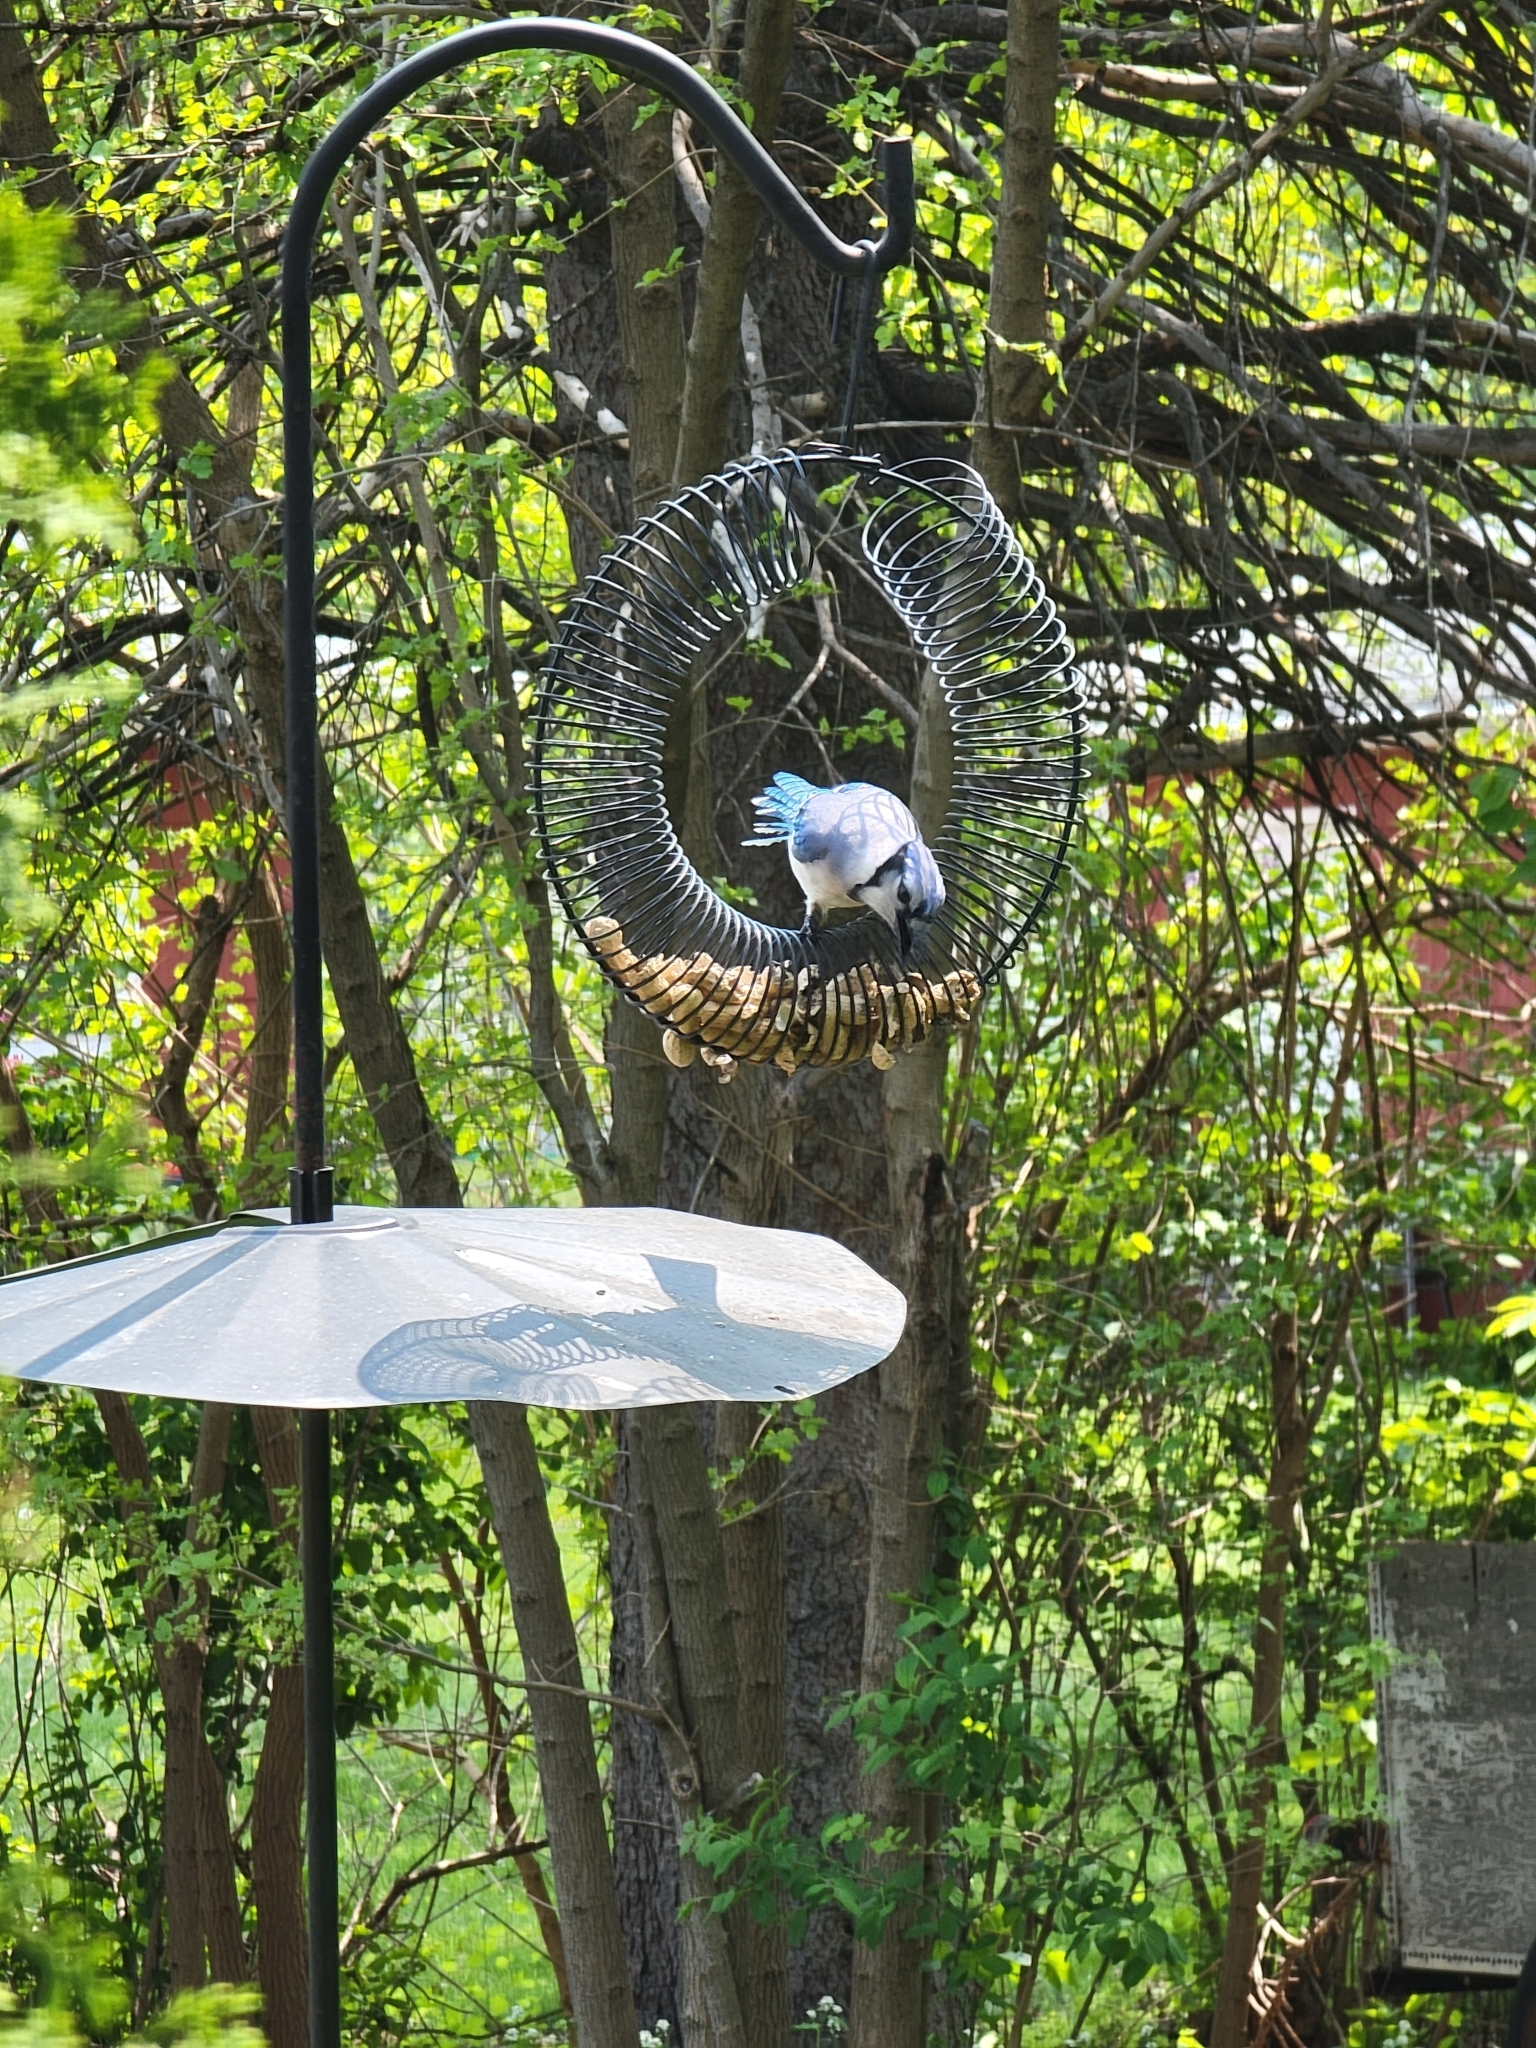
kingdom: Animalia
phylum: Chordata
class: Aves
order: Passeriformes
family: Corvidae
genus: Cyanocitta
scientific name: Cyanocitta cristata
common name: Blue jay
